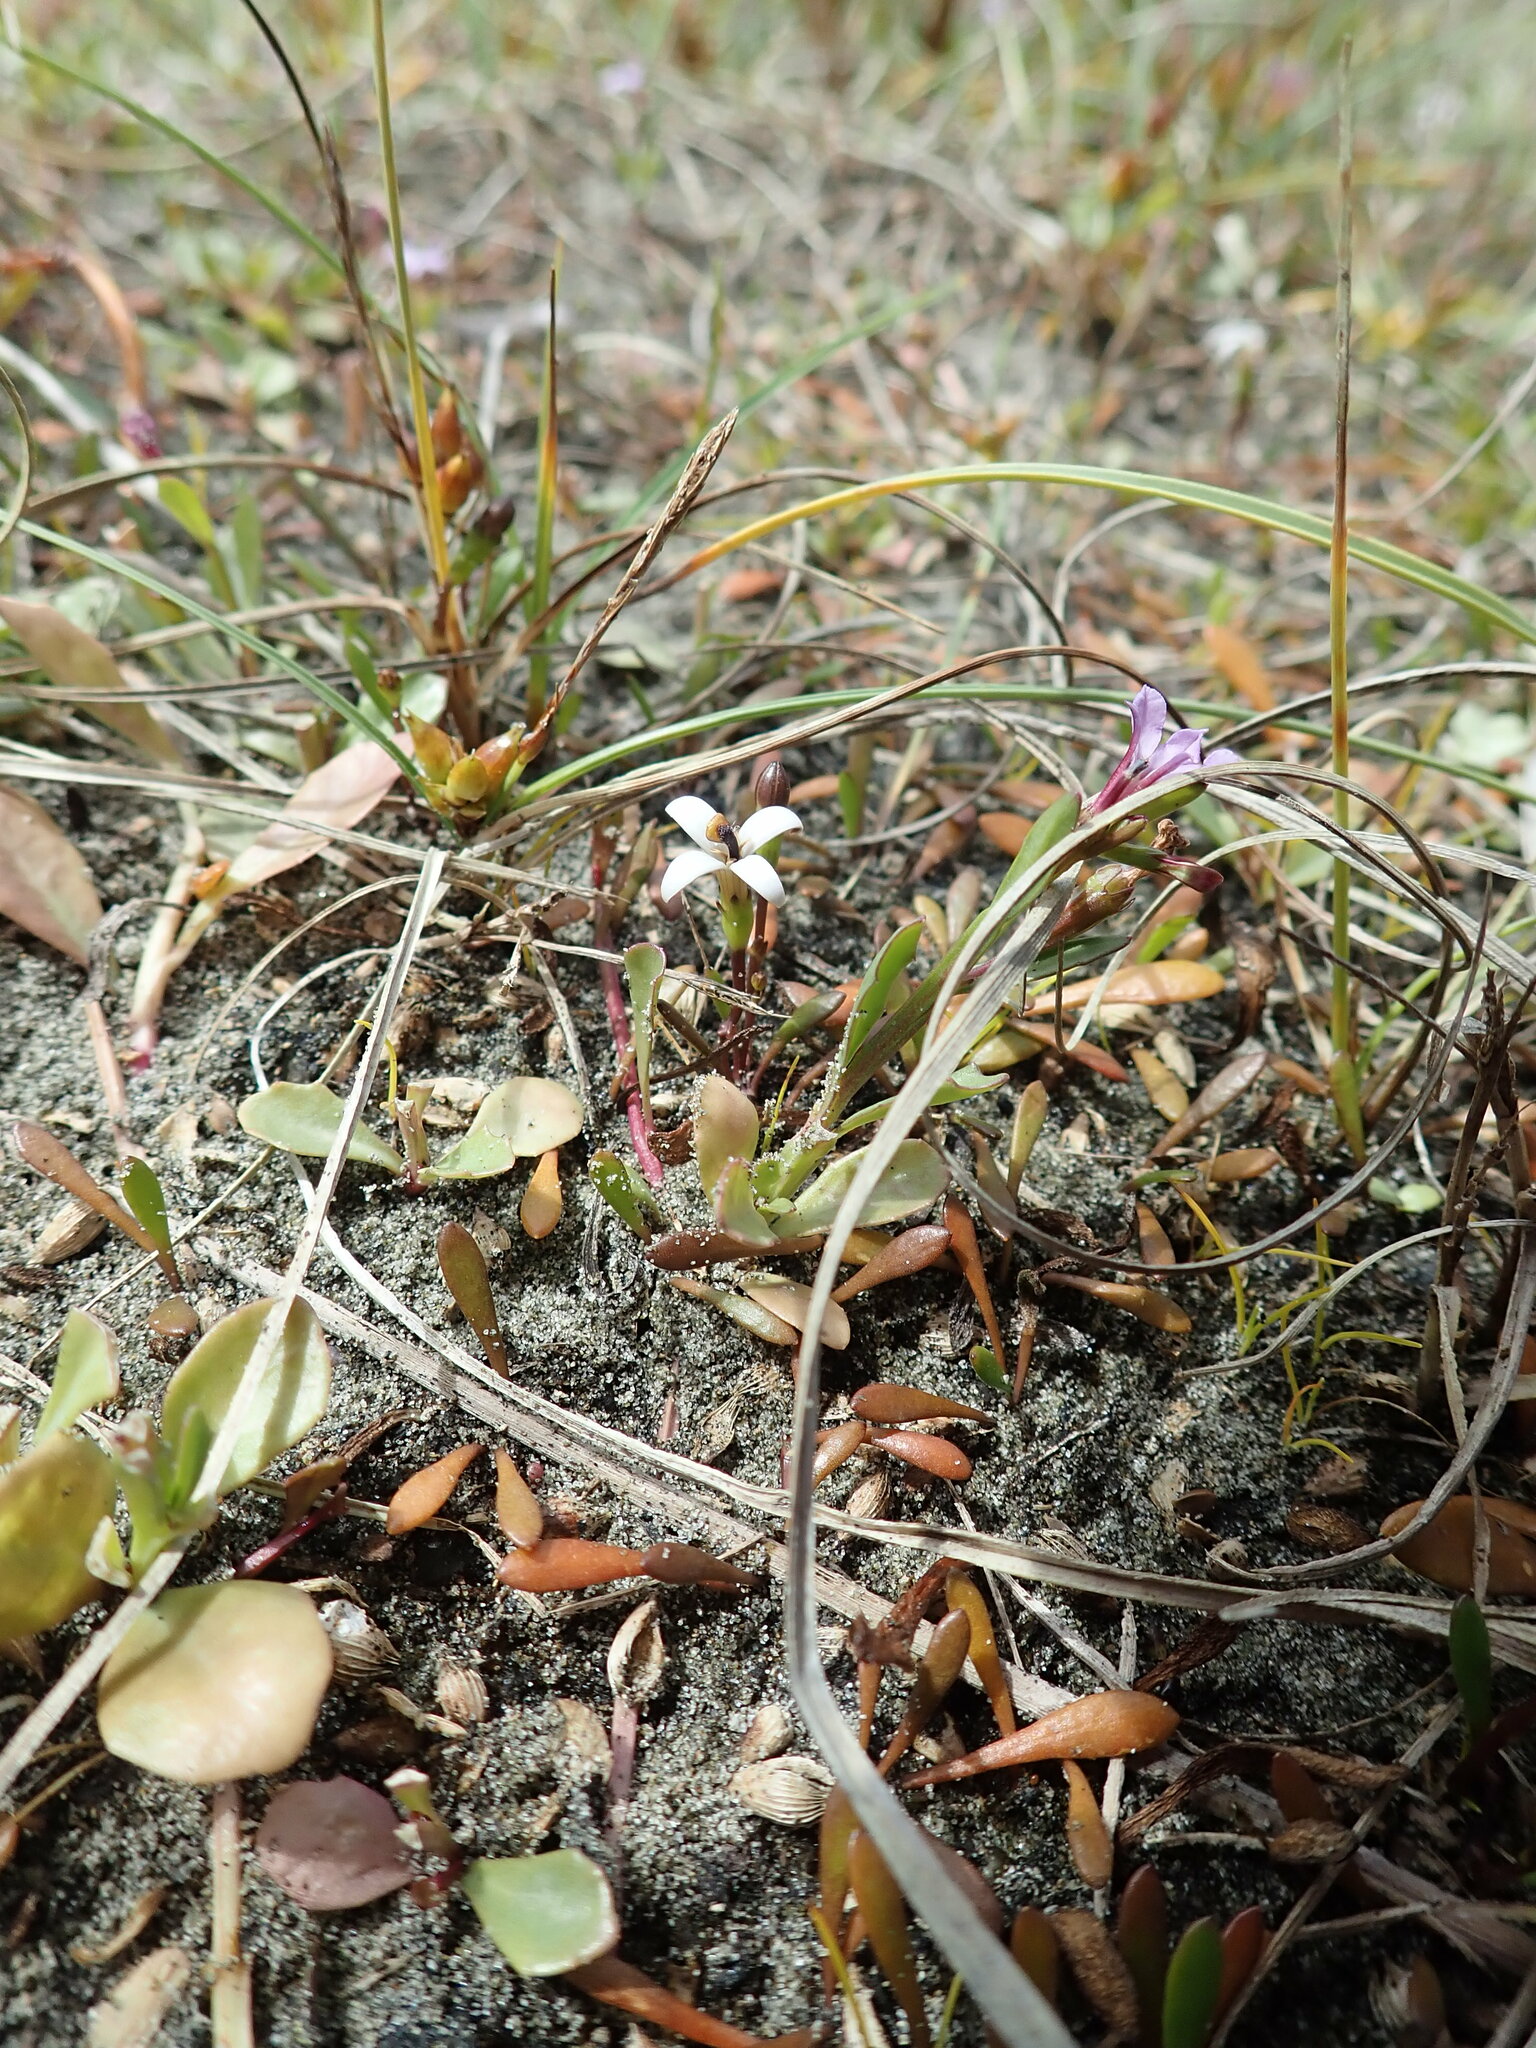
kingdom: Plantae
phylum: Tracheophyta
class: Magnoliopsida
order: Asterales
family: Goodeniaceae
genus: Goodenia
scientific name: Goodenia radicans
